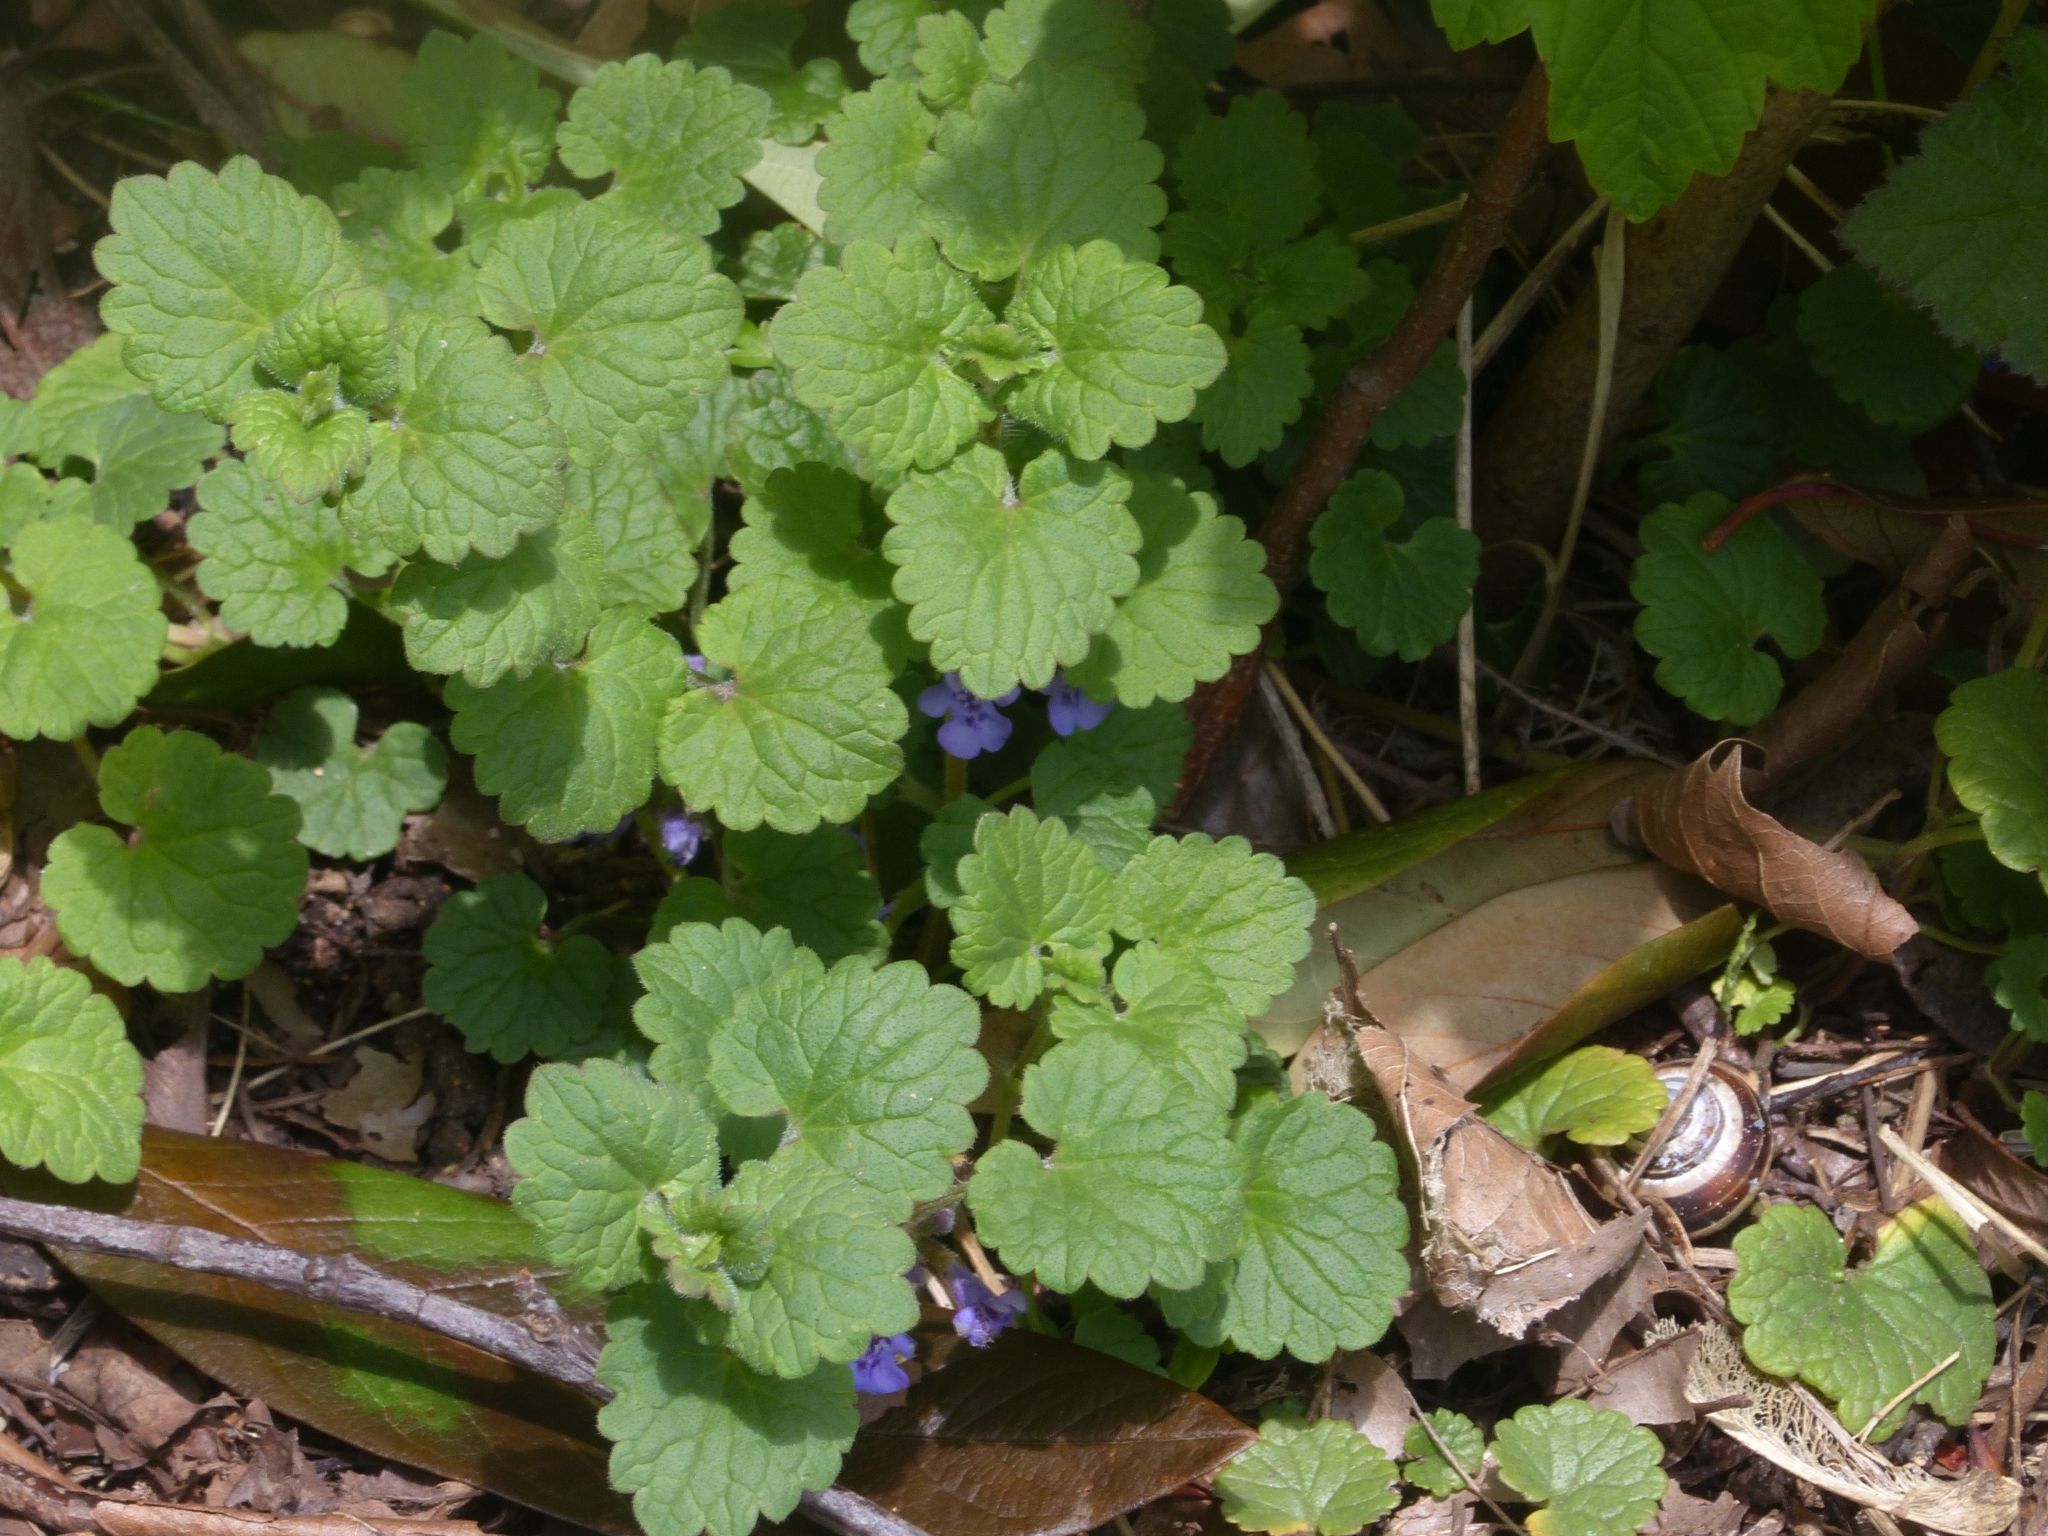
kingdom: Plantae
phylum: Tracheophyta
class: Magnoliopsida
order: Lamiales
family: Lamiaceae
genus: Glechoma
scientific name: Glechoma hederacea
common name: Ground ivy
